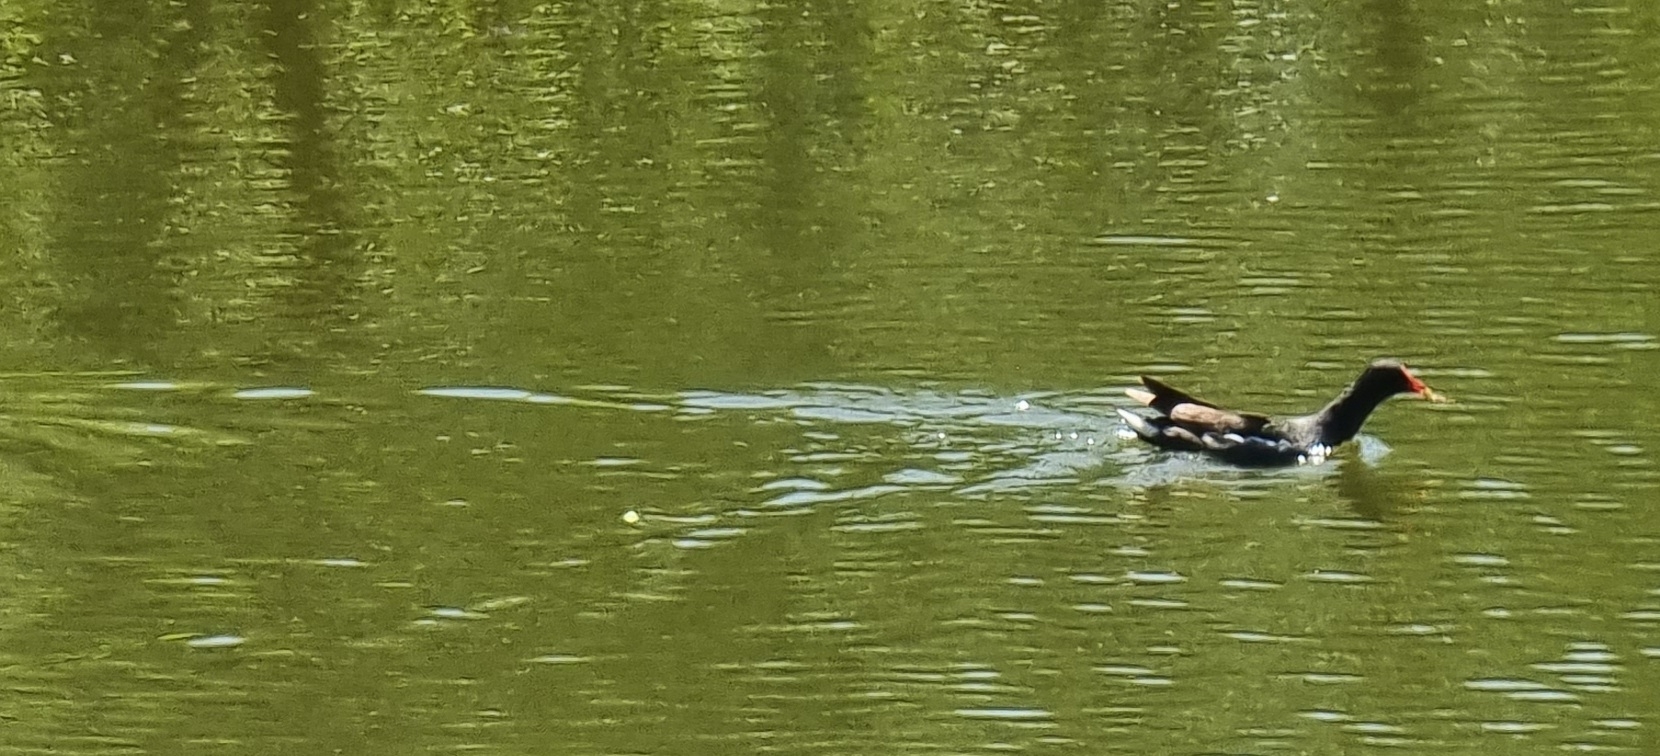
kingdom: Animalia
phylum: Chordata
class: Aves
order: Gruiformes
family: Rallidae
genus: Gallinula
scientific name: Gallinula chloropus
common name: Common moorhen
